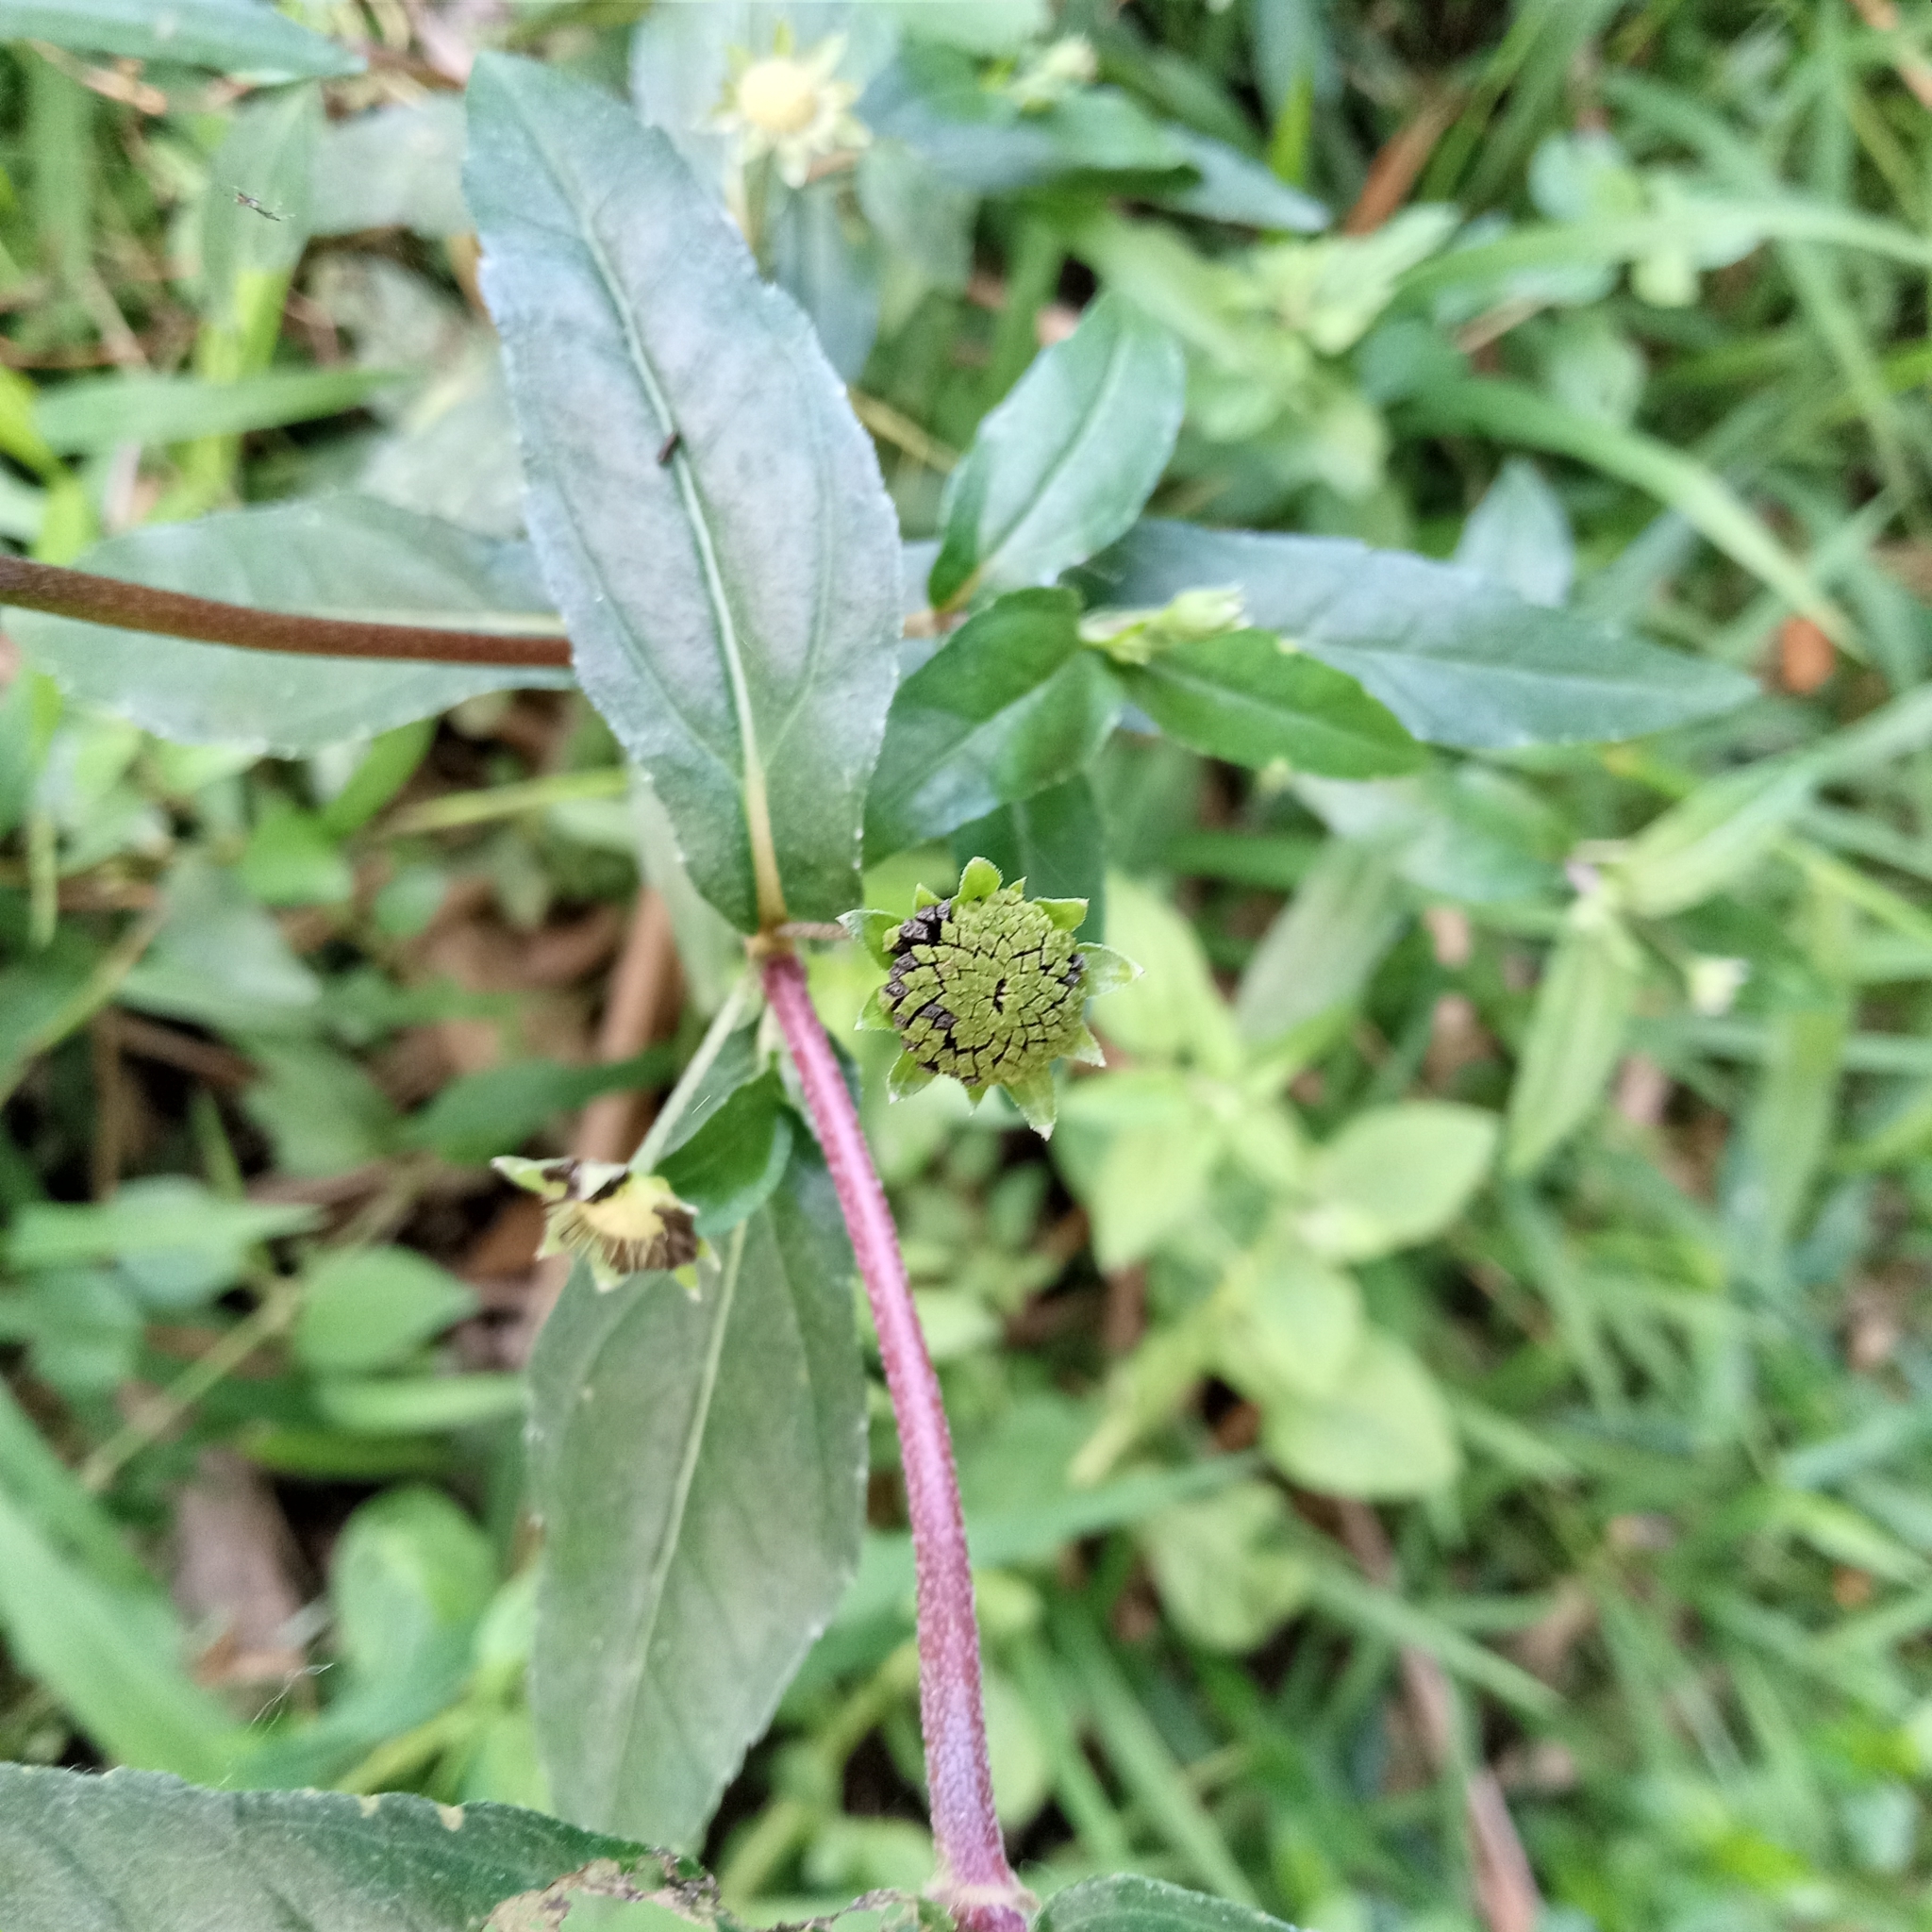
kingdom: Plantae
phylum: Tracheophyta
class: Magnoliopsida
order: Asterales
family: Asteraceae
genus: Eclipta
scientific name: Eclipta prostrata
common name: False daisy
